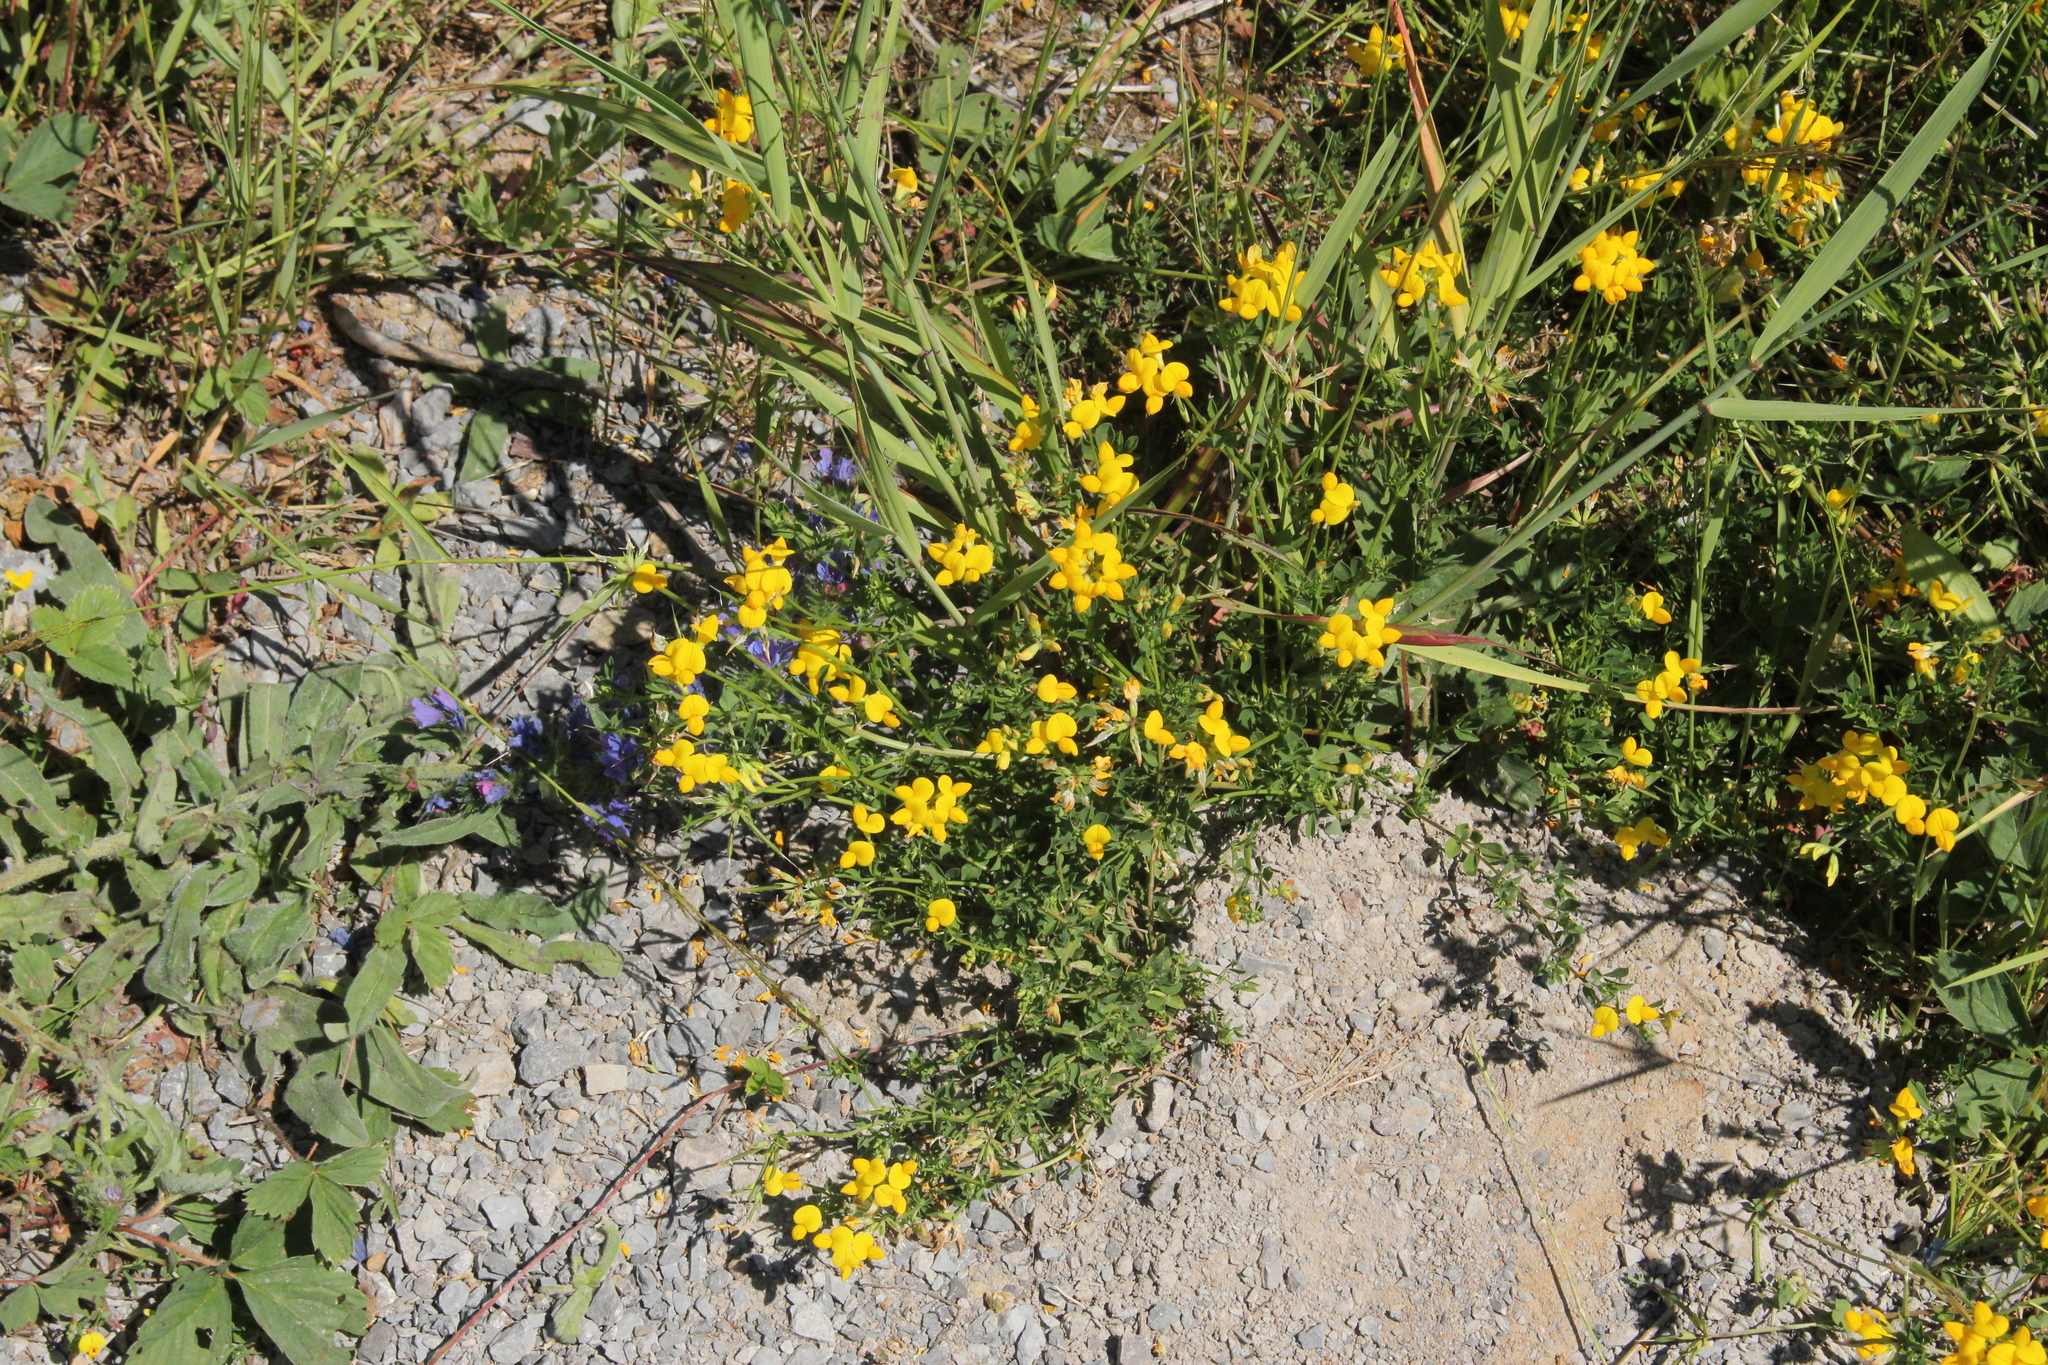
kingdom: Plantae
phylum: Tracheophyta
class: Magnoliopsida
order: Fabales
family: Fabaceae
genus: Lotus
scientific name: Lotus corniculatus
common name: Common bird's-foot-trefoil
